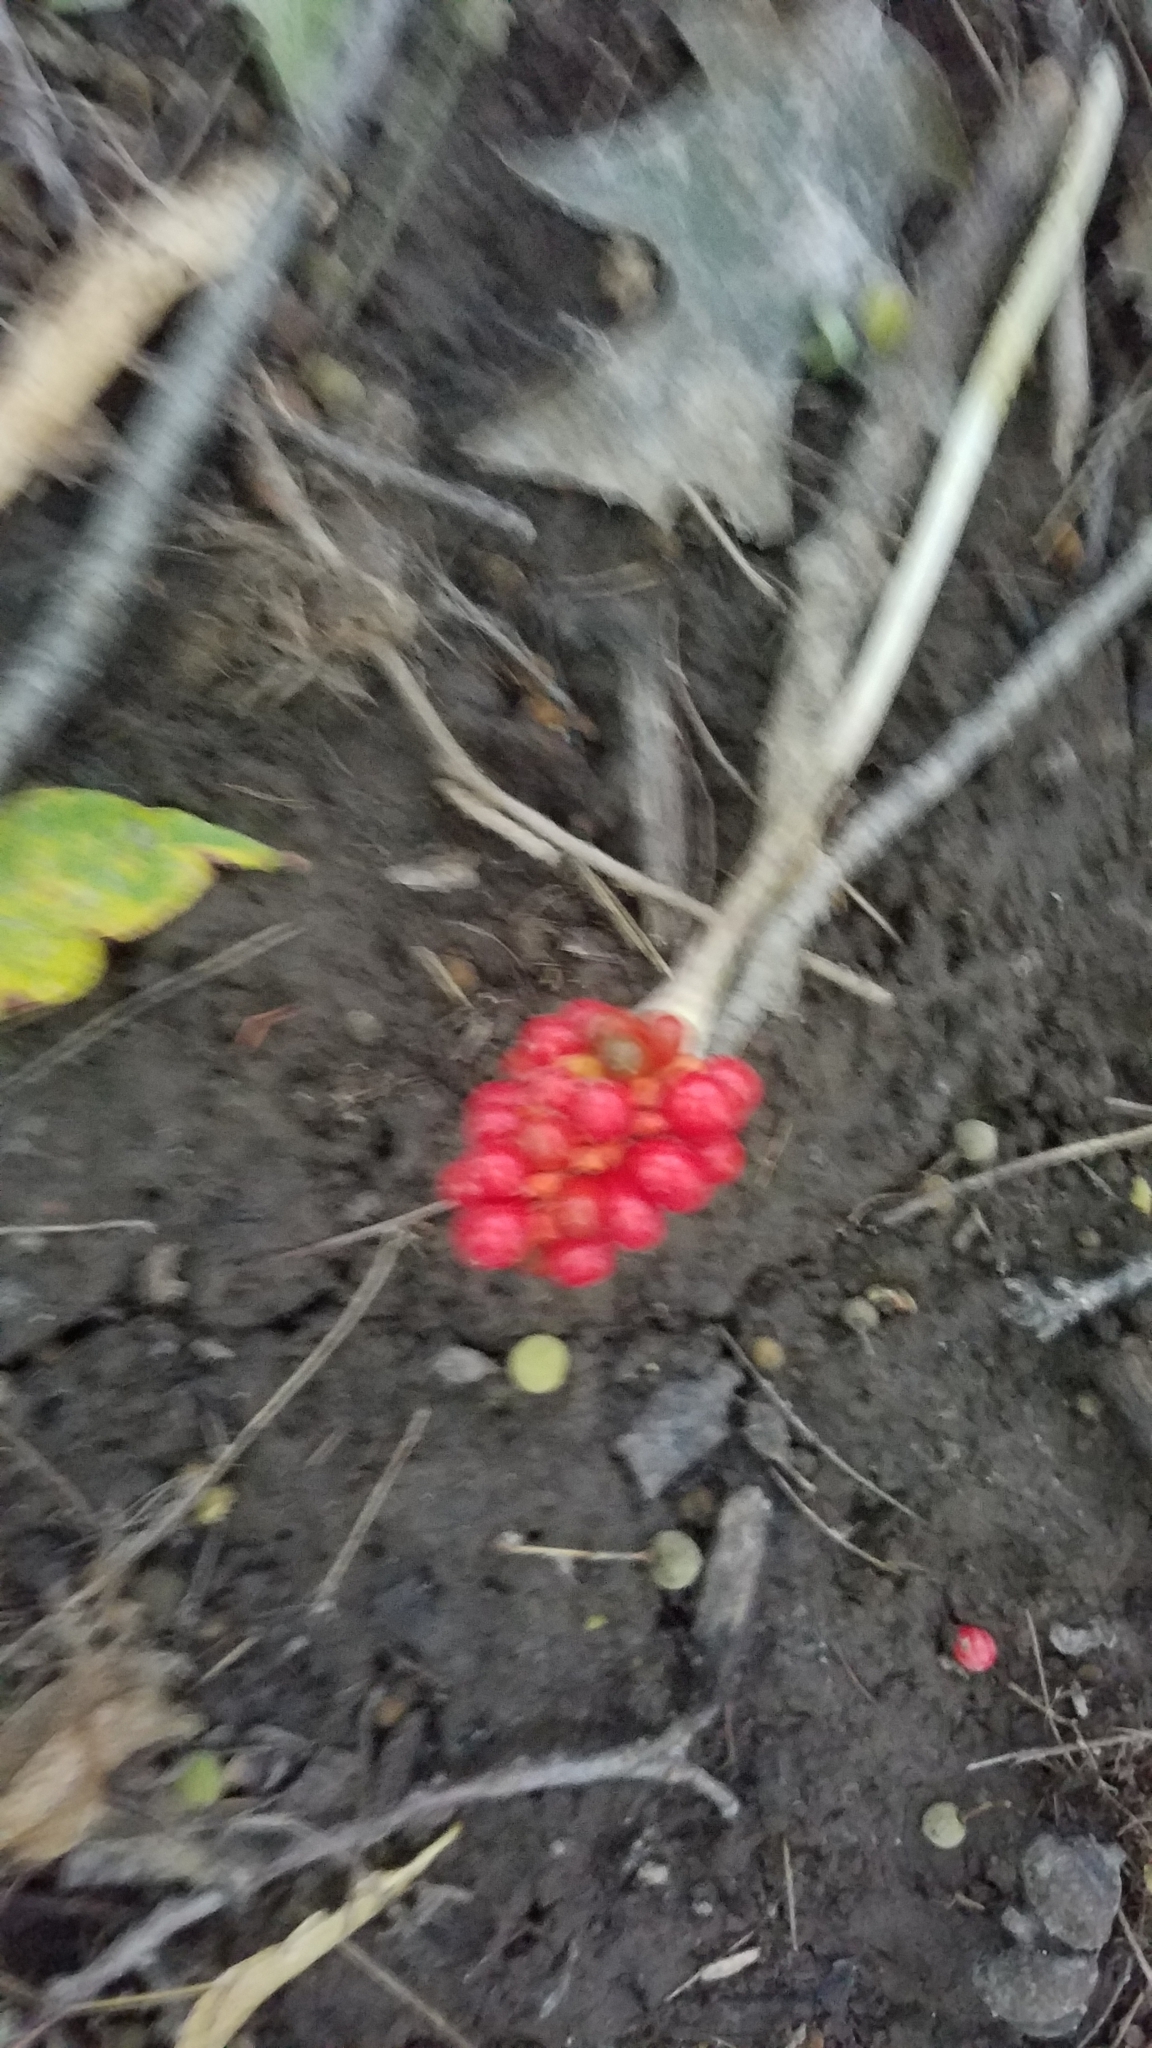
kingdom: Plantae
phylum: Tracheophyta
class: Liliopsida
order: Alismatales
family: Araceae
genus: Arisaema
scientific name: Arisaema triphyllum
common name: Jack-in-the-pulpit
